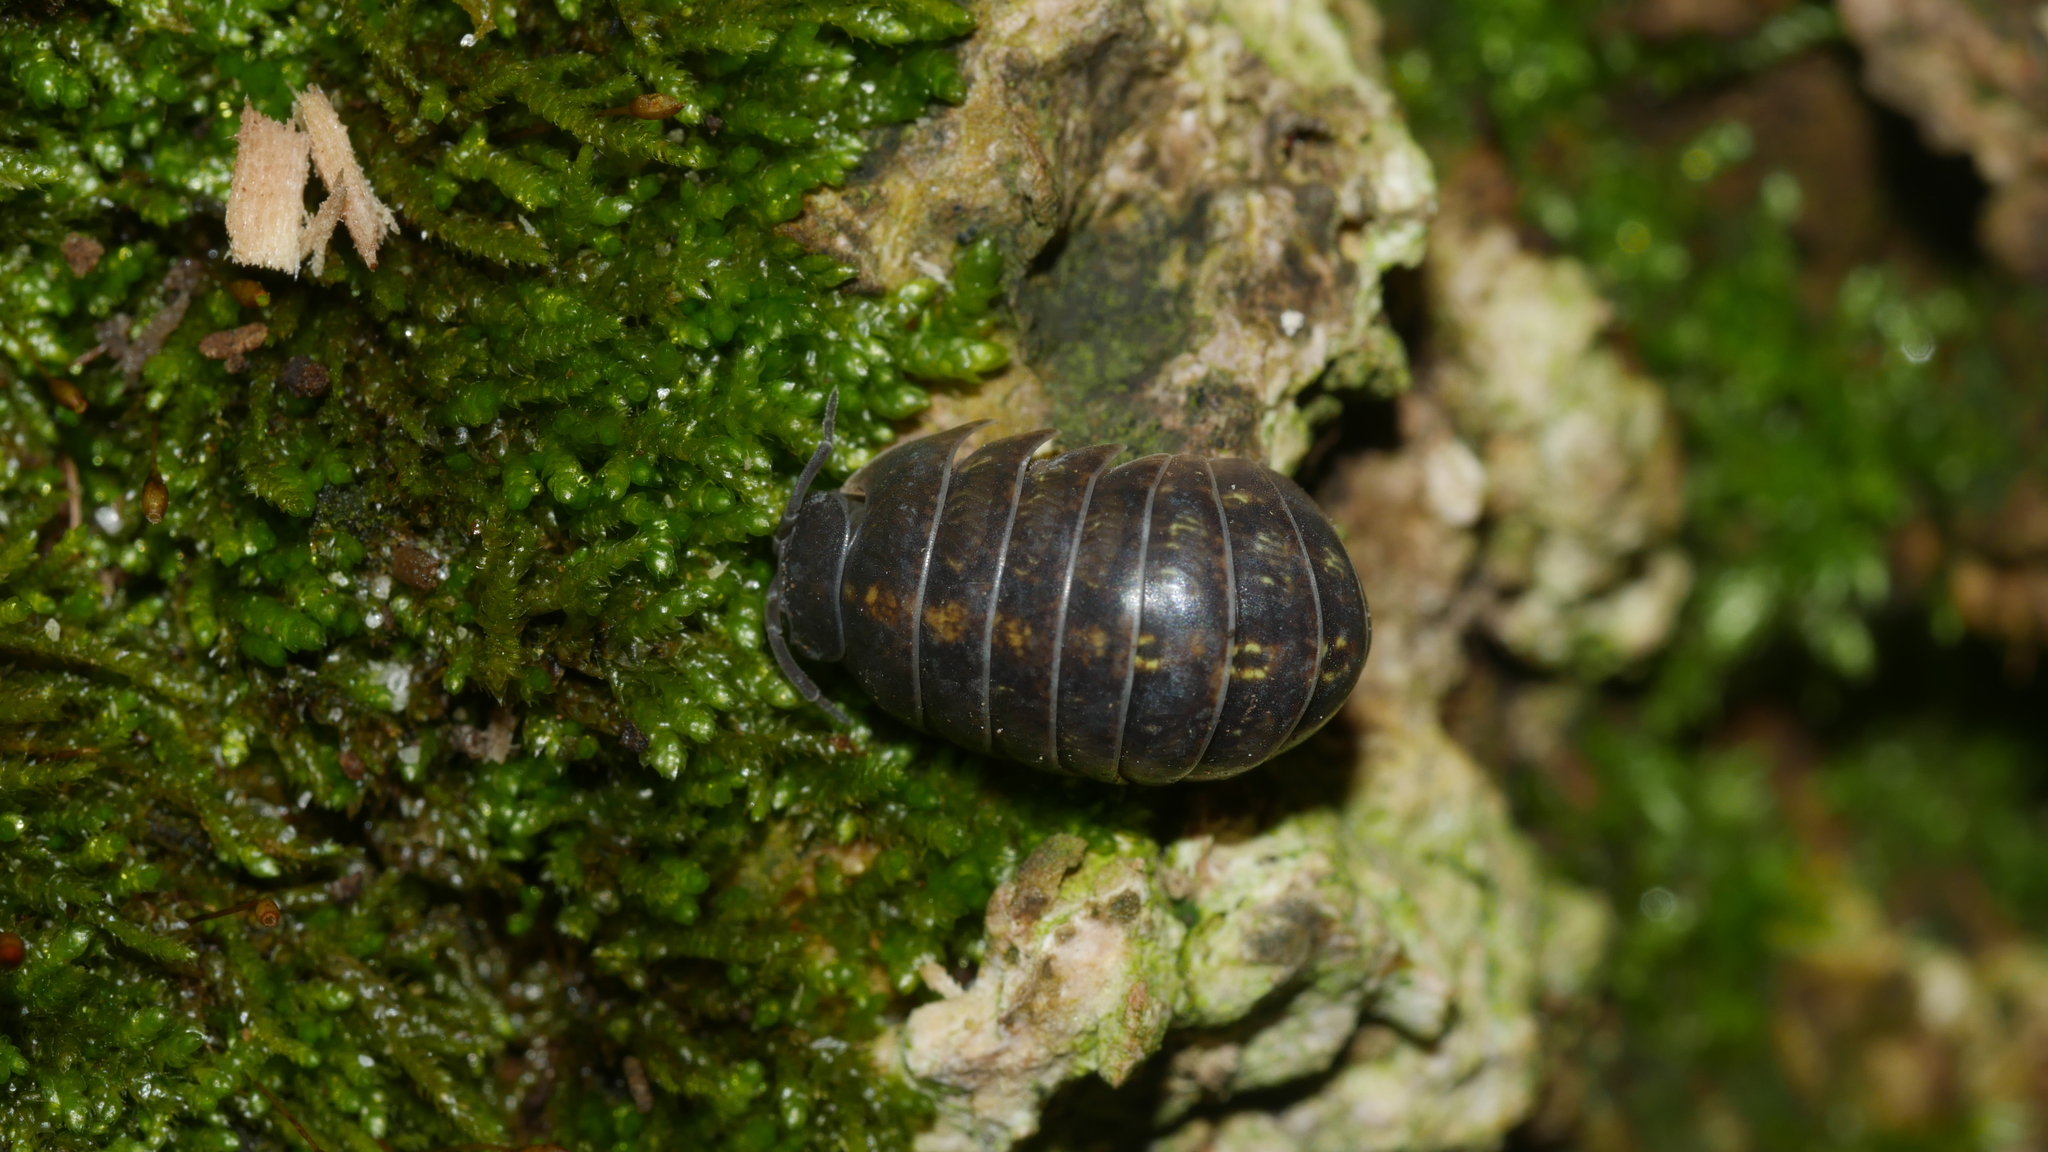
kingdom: Animalia
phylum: Arthropoda
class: Malacostraca
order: Isopoda
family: Armadillidiidae
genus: Armadillidium
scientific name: Armadillidium vulgare
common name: Common pill woodlouse
